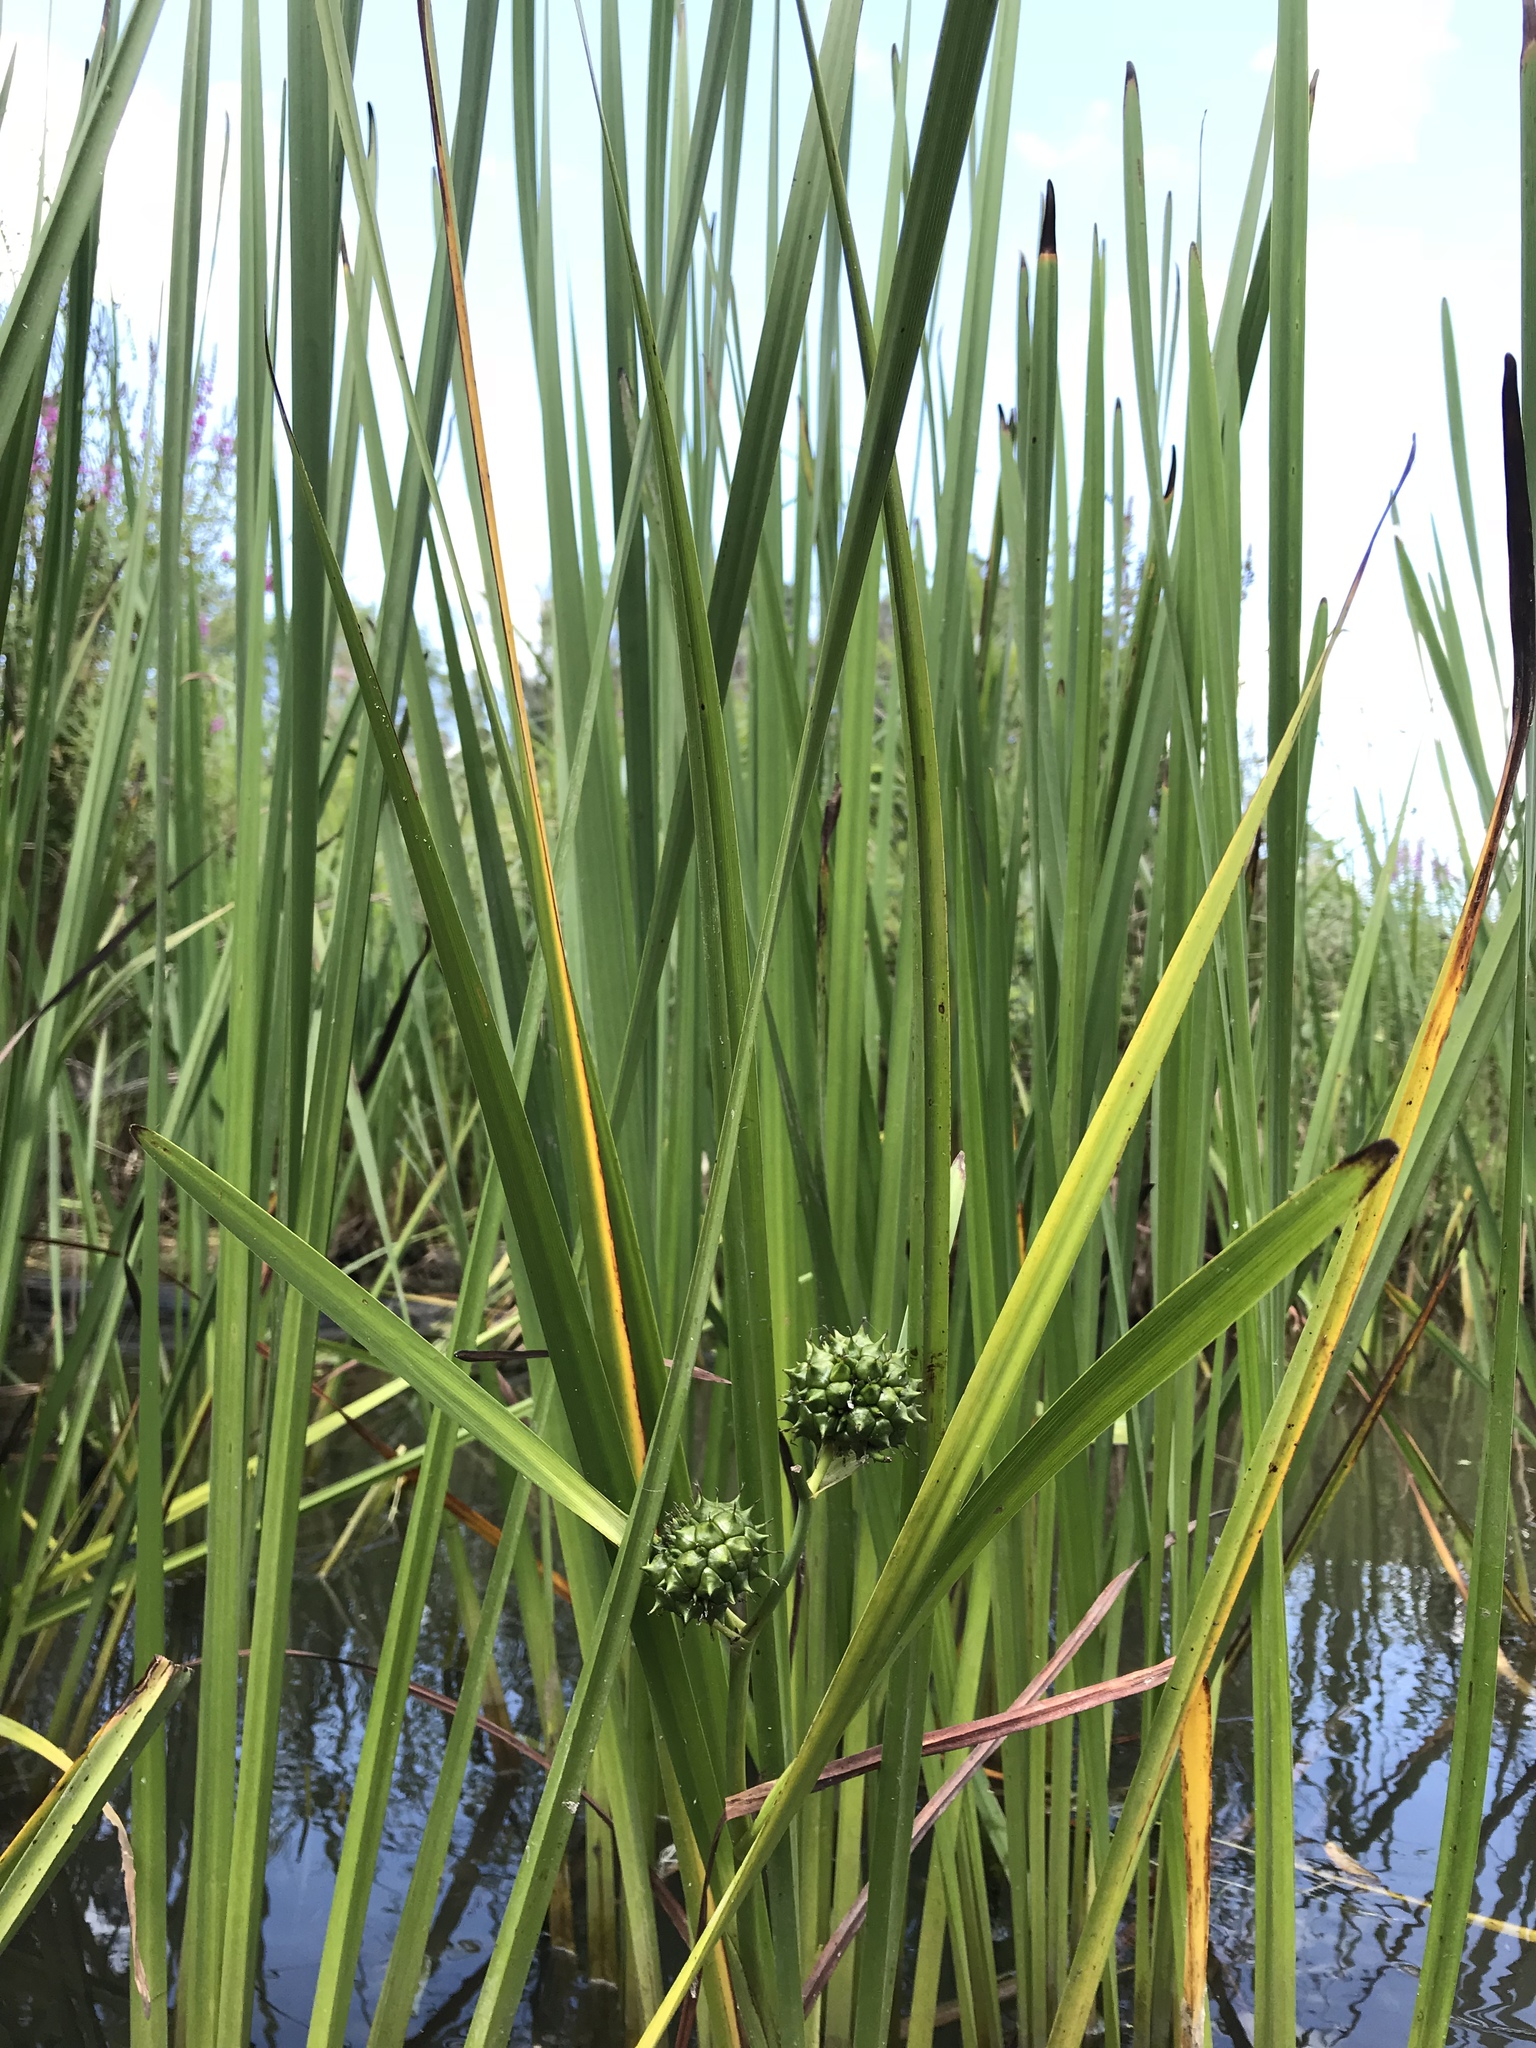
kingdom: Plantae
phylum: Tracheophyta
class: Liliopsida
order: Poales
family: Typhaceae
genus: Sparganium
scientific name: Sparganium eurycarpum
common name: Broad-fruited burreed
